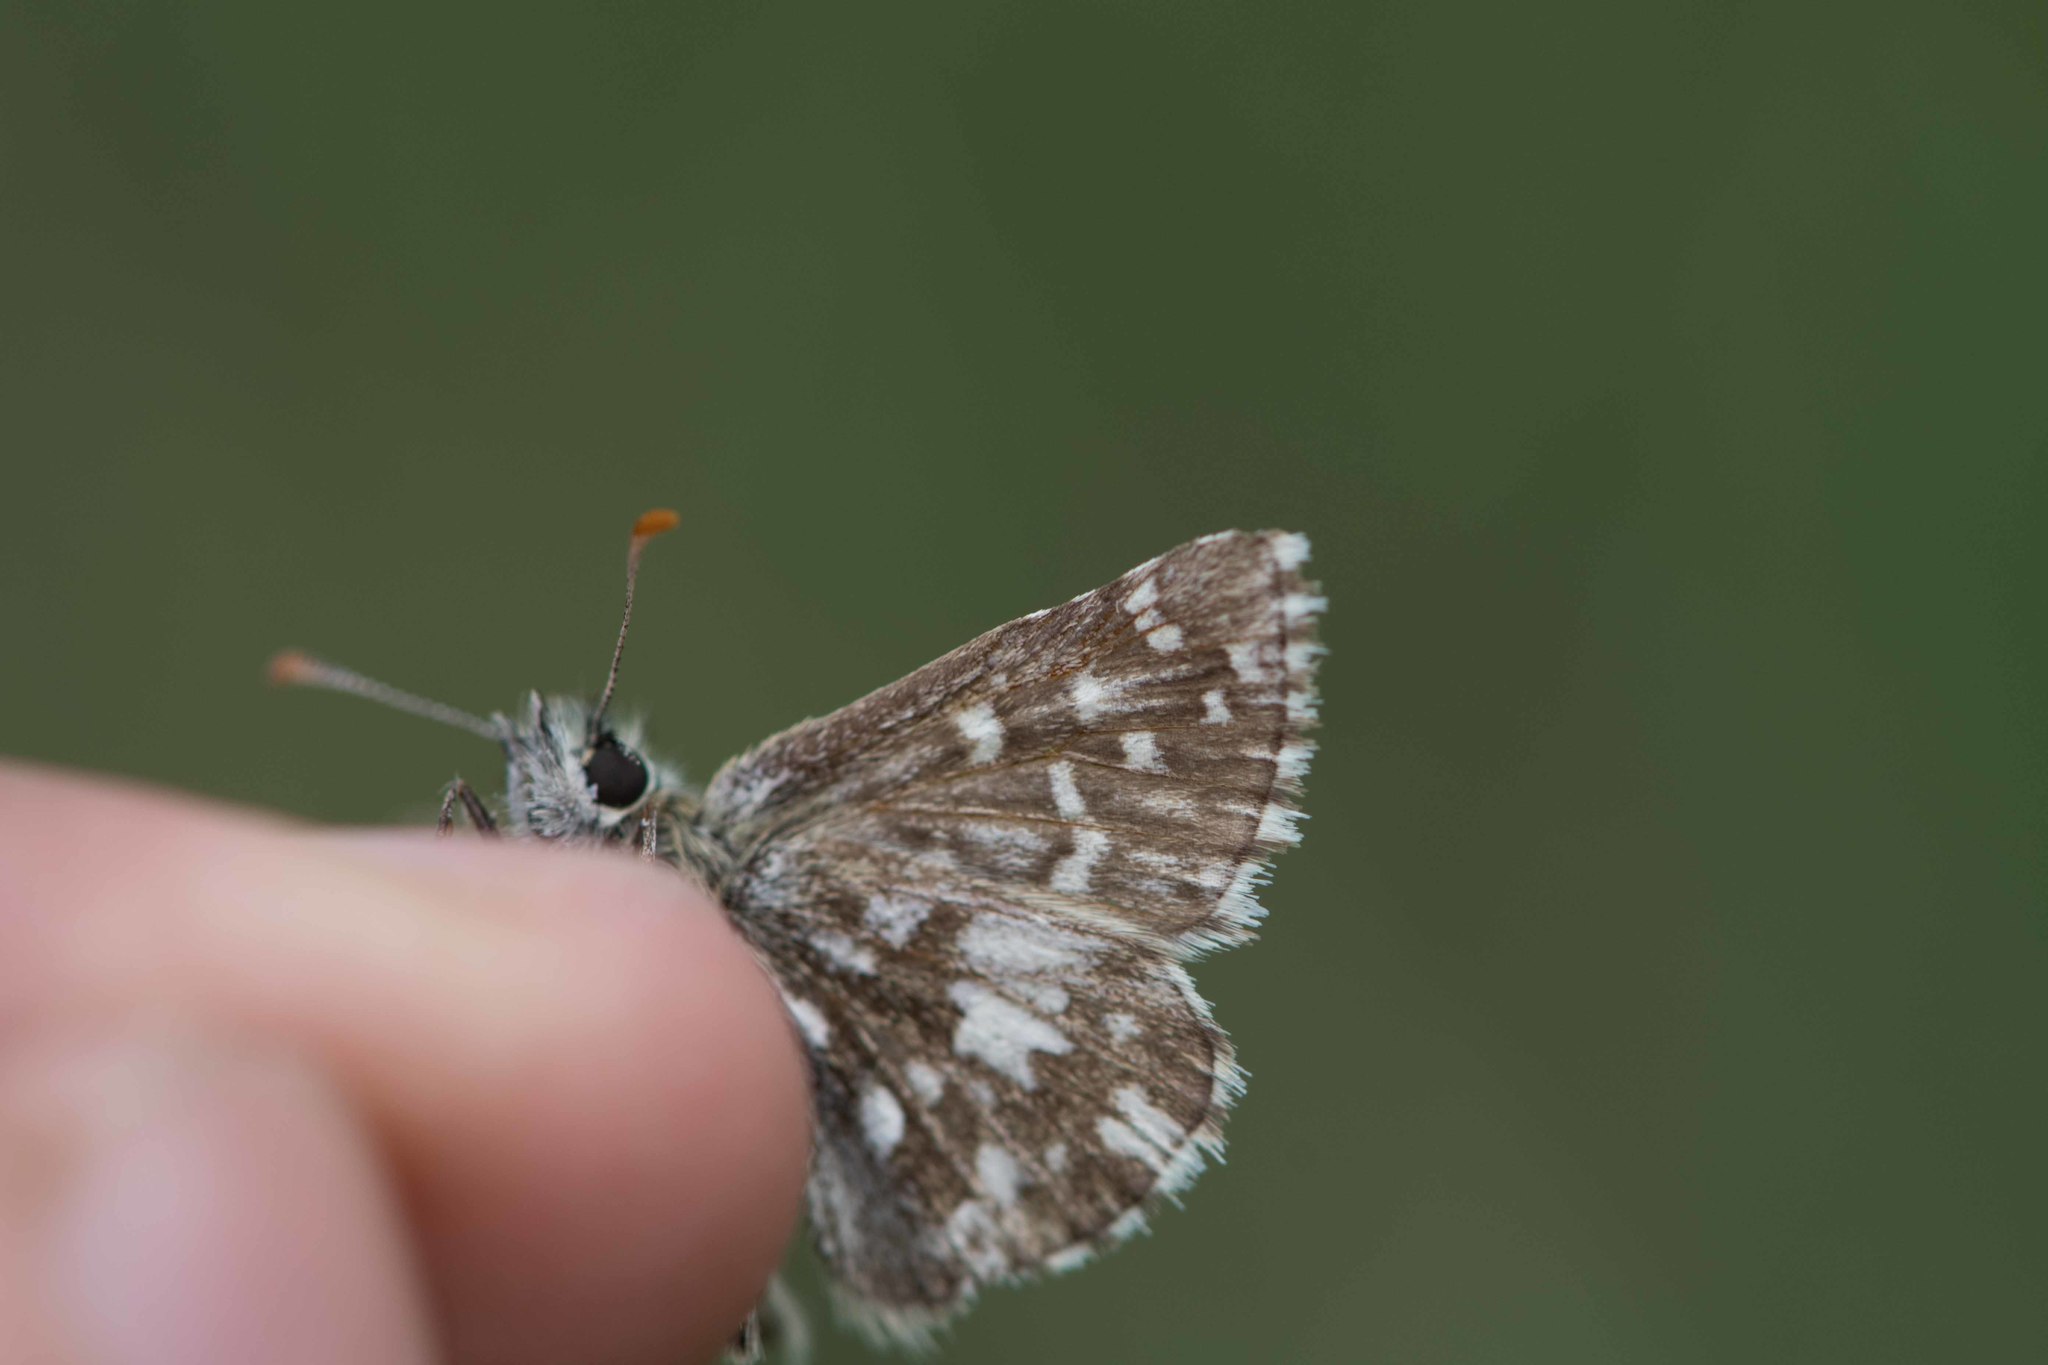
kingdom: Animalia
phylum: Arthropoda
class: Insecta
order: Lepidoptera
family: Hesperiidae
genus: Pyrgus
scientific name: Pyrgus malvoides
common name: Southern grizzled skipper
